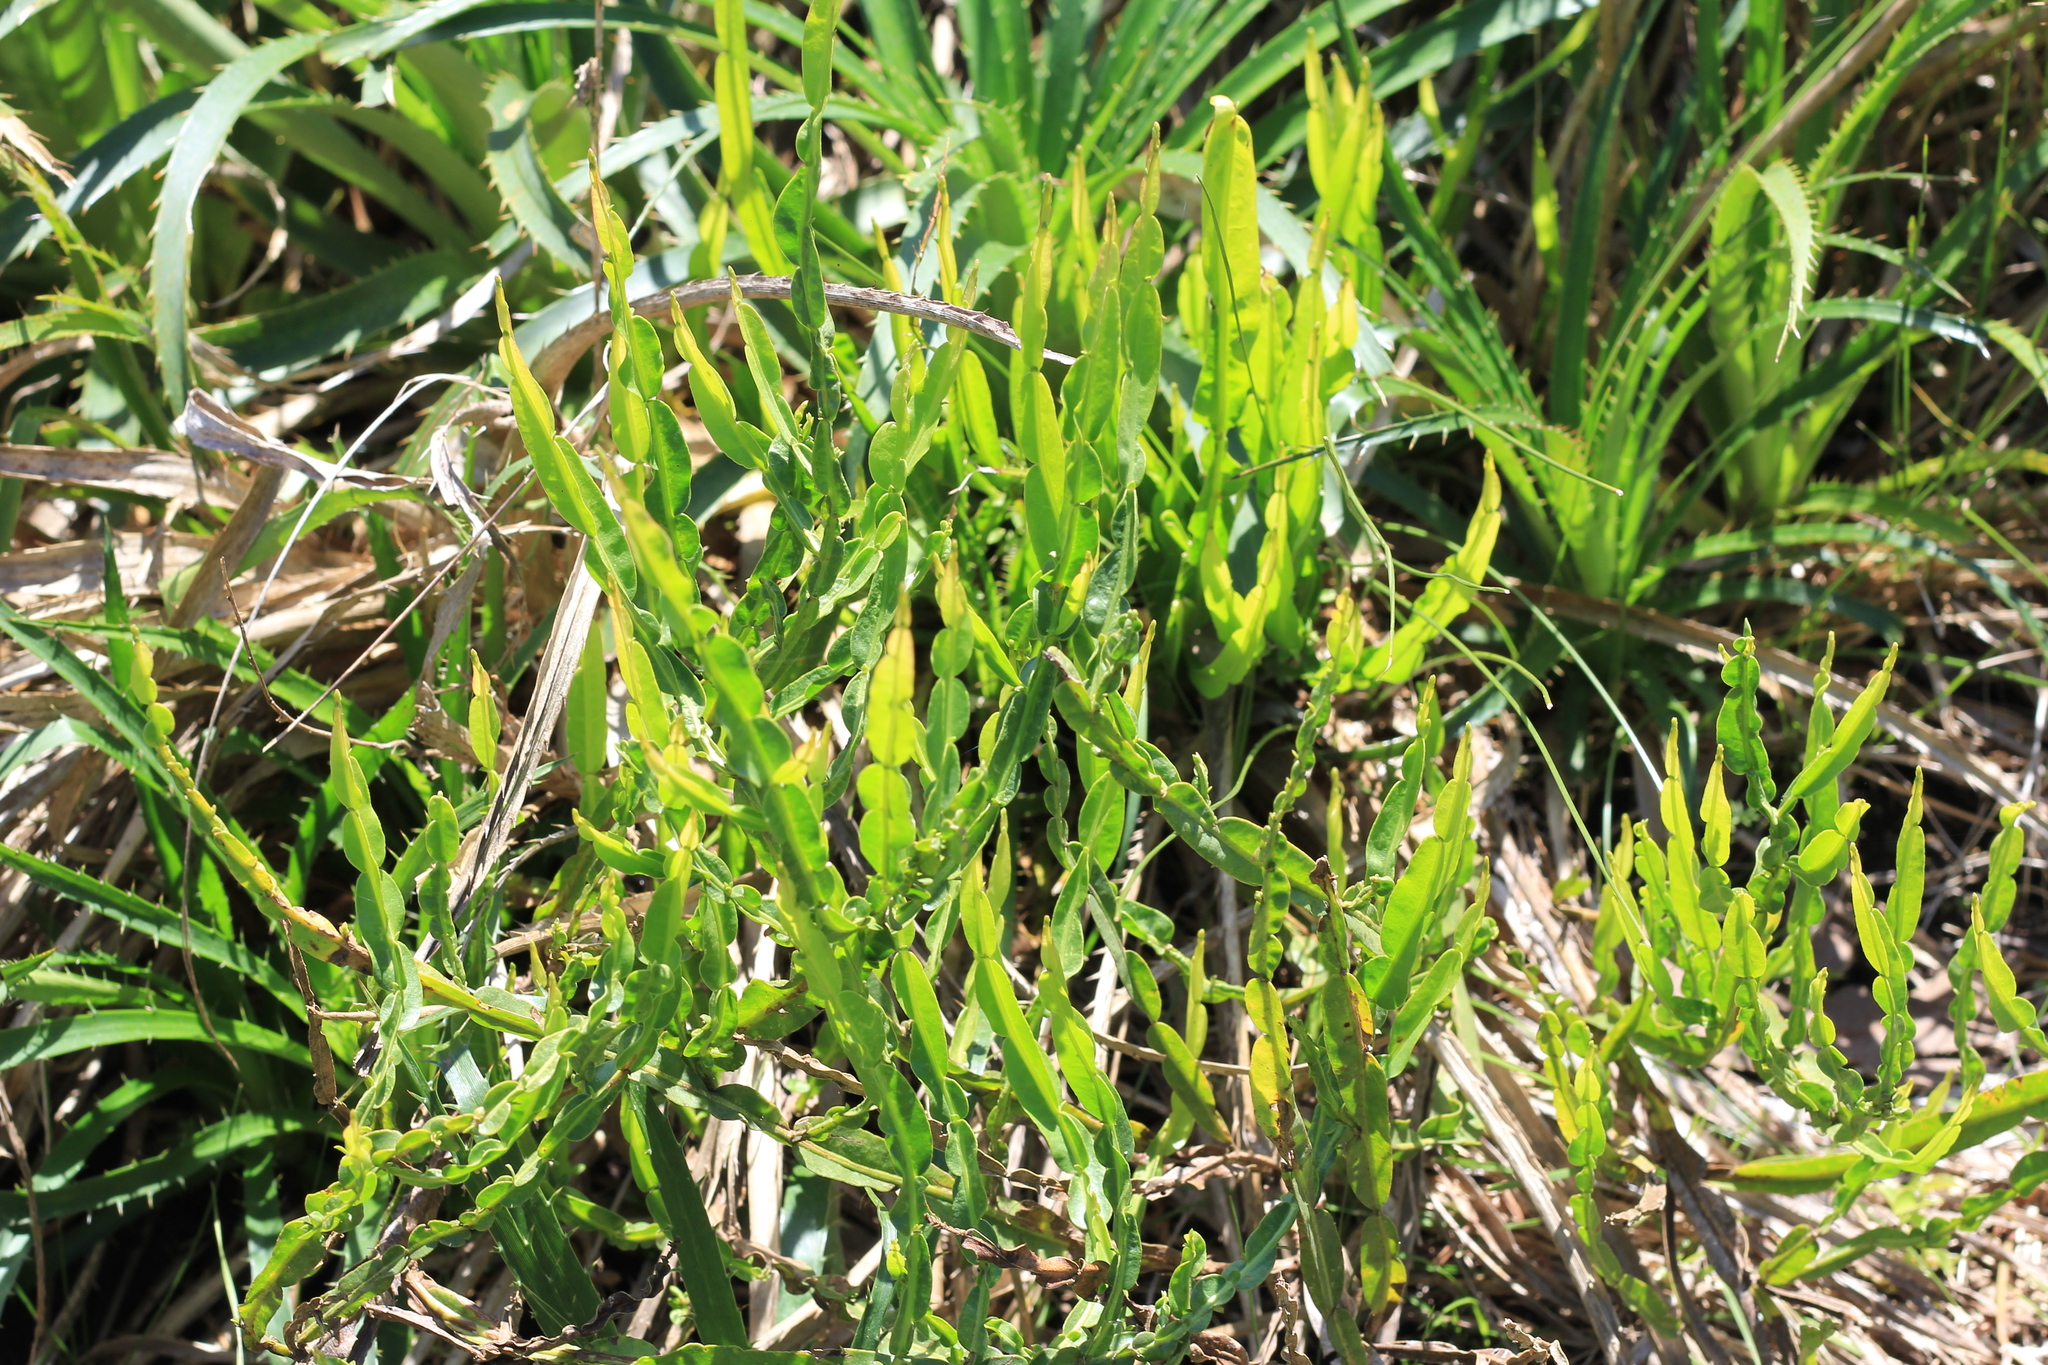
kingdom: Plantae
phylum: Tracheophyta
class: Magnoliopsida
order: Asterales
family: Asteraceae
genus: Baccharis
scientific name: Baccharis trimera
